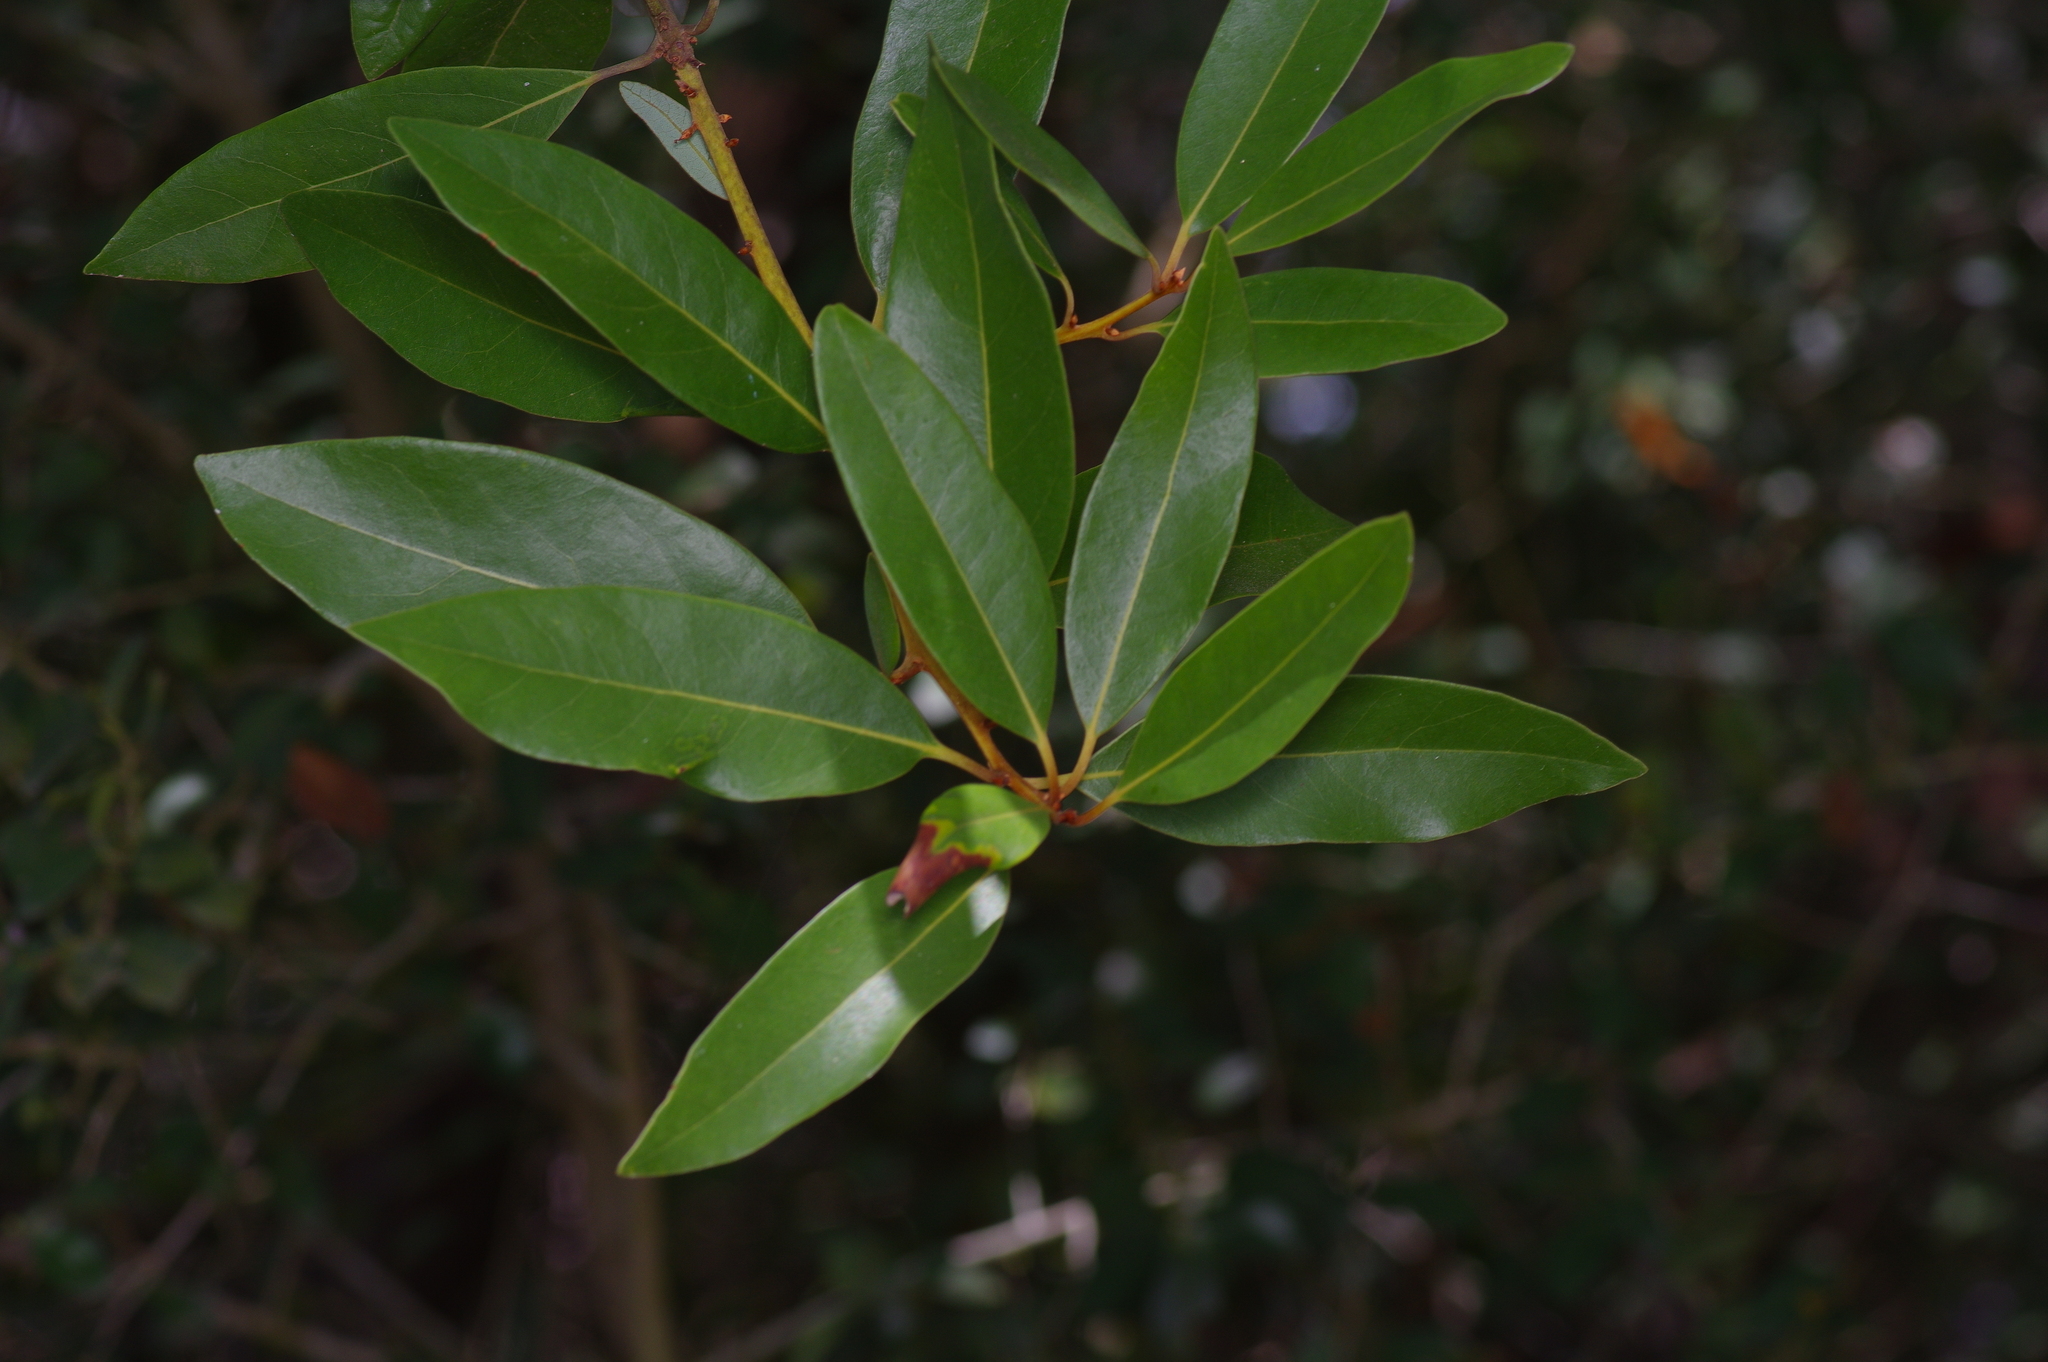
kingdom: Plantae
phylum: Tracheophyta
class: Magnoliopsida
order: Laurales
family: Lauraceae
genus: Persea
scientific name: Persea borbonia
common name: Redbay
